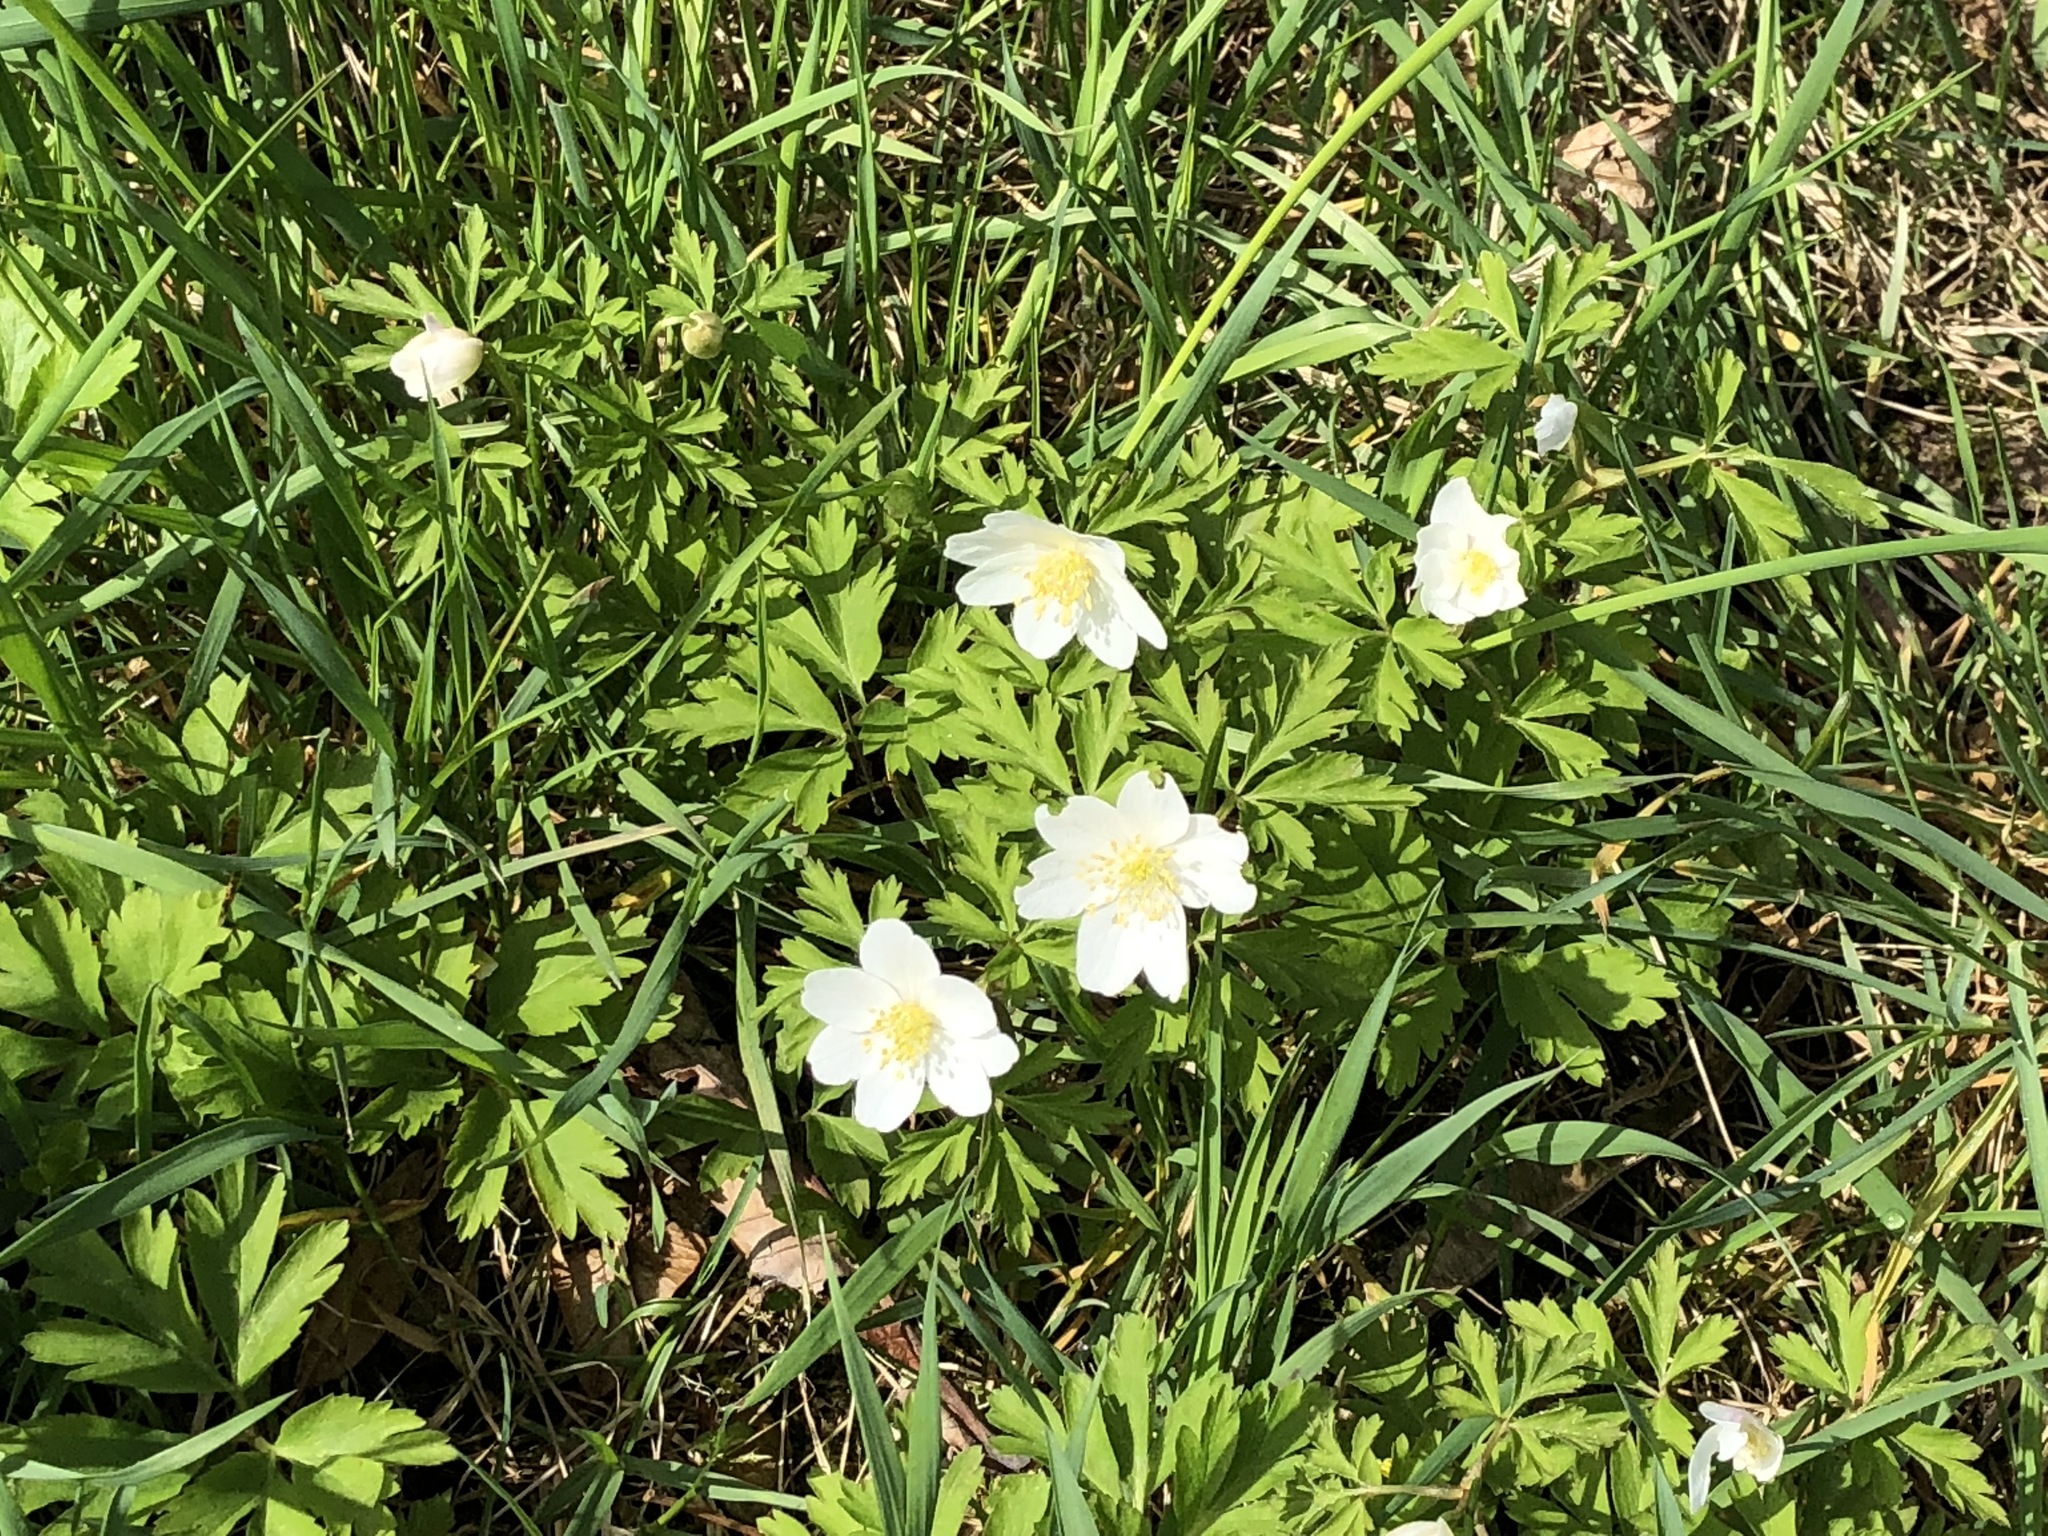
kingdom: Plantae
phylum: Tracheophyta
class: Magnoliopsida
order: Ranunculales
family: Ranunculaceae
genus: Anemone
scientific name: Anemone nemorosa
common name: Wood anemone
